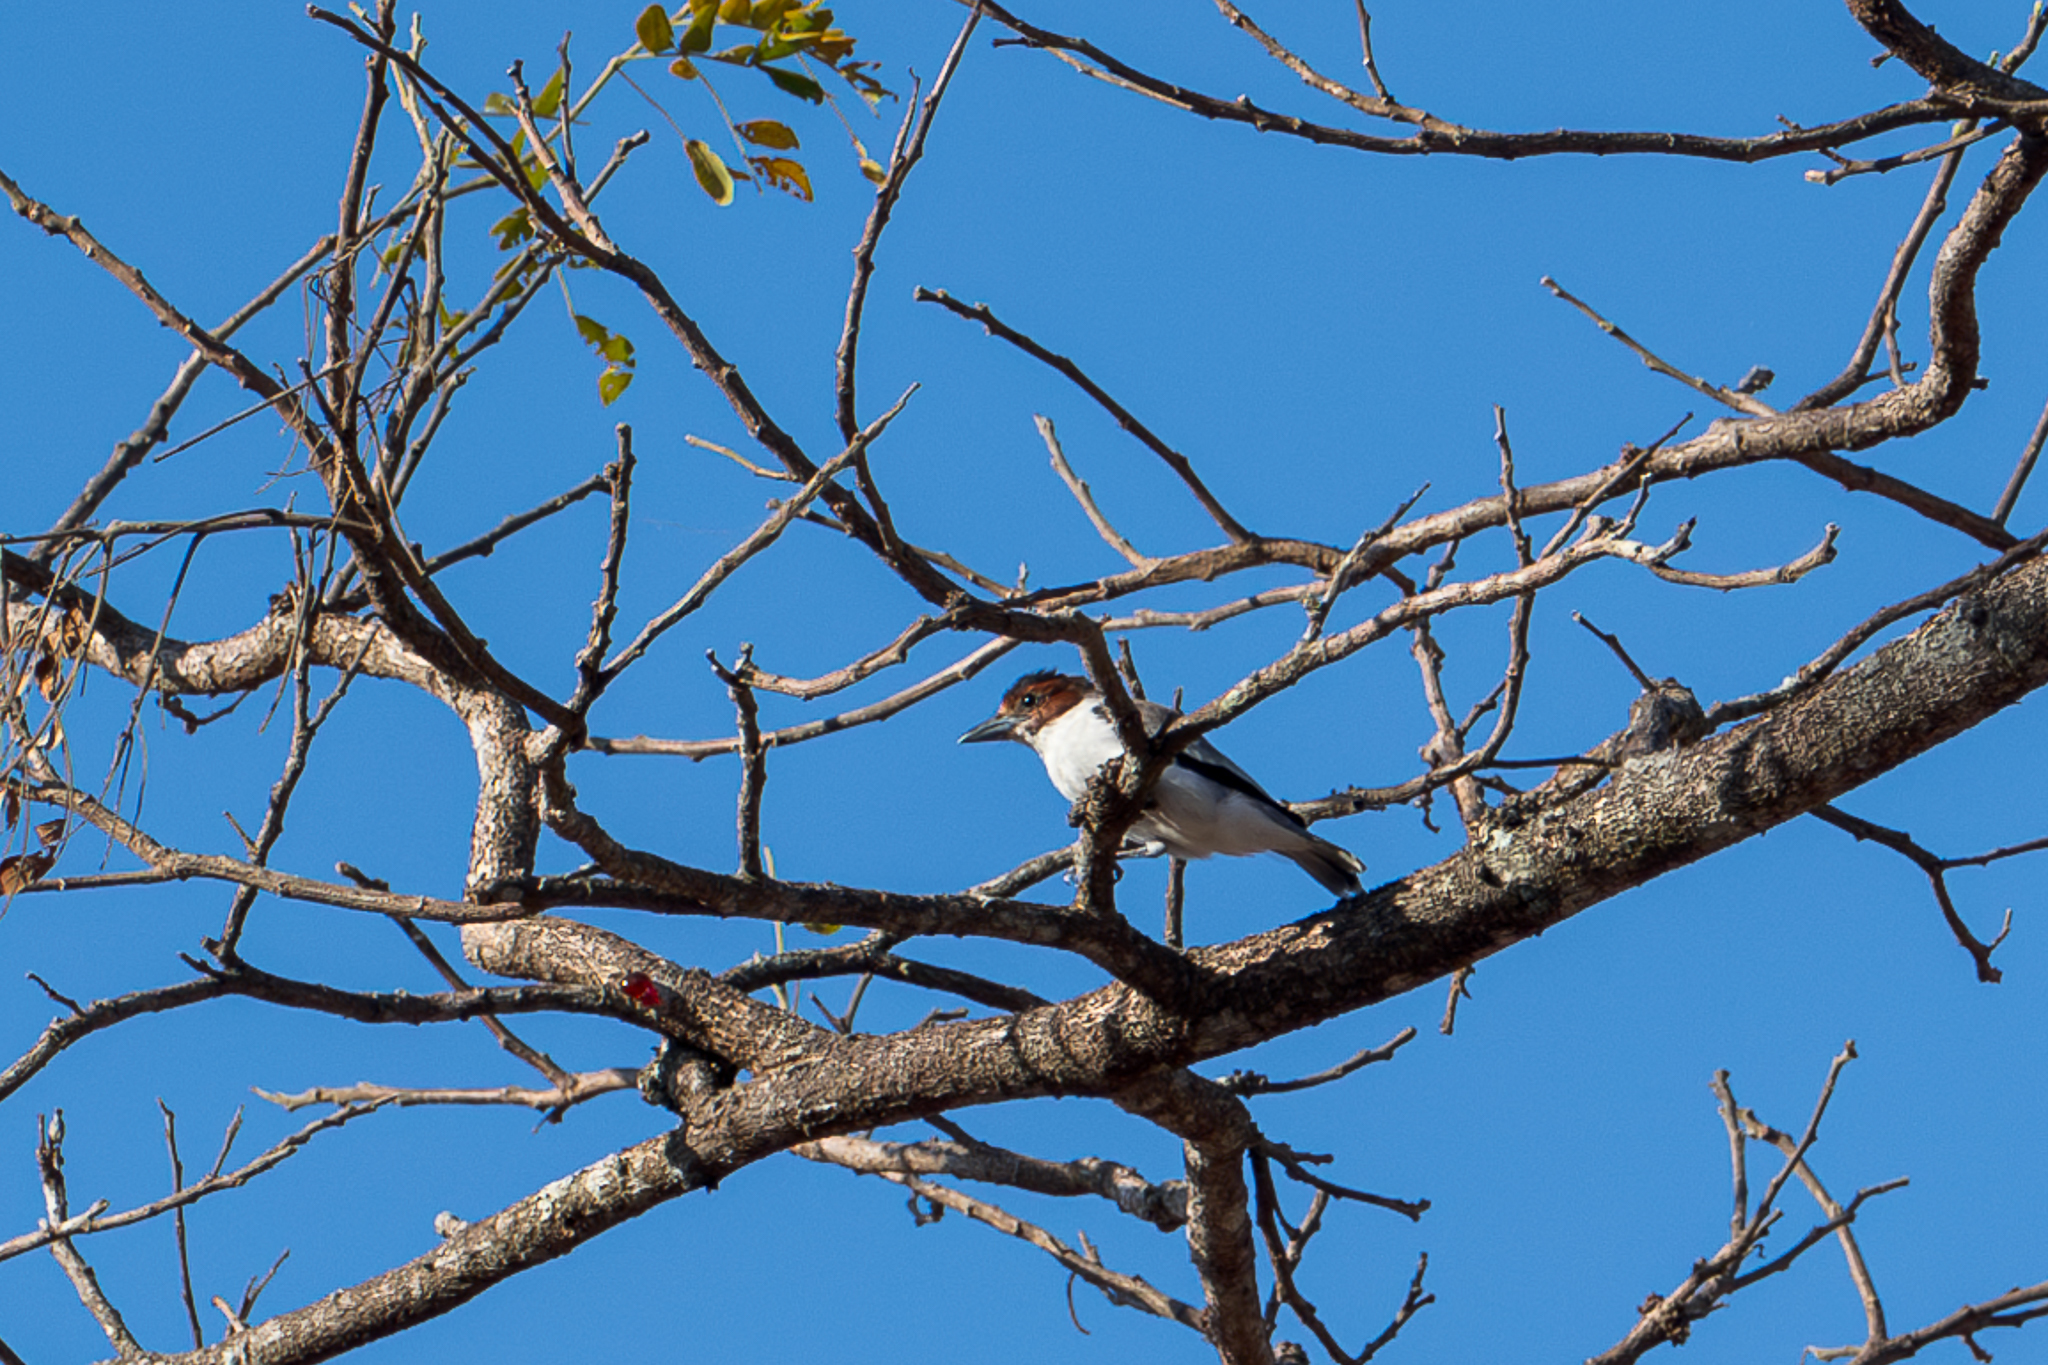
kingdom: Animalia
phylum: Chordata
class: Aves
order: Passeriformes
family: Cotingidae
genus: Tityra
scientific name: Tityra inquisitor
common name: Black-crowned tityra
